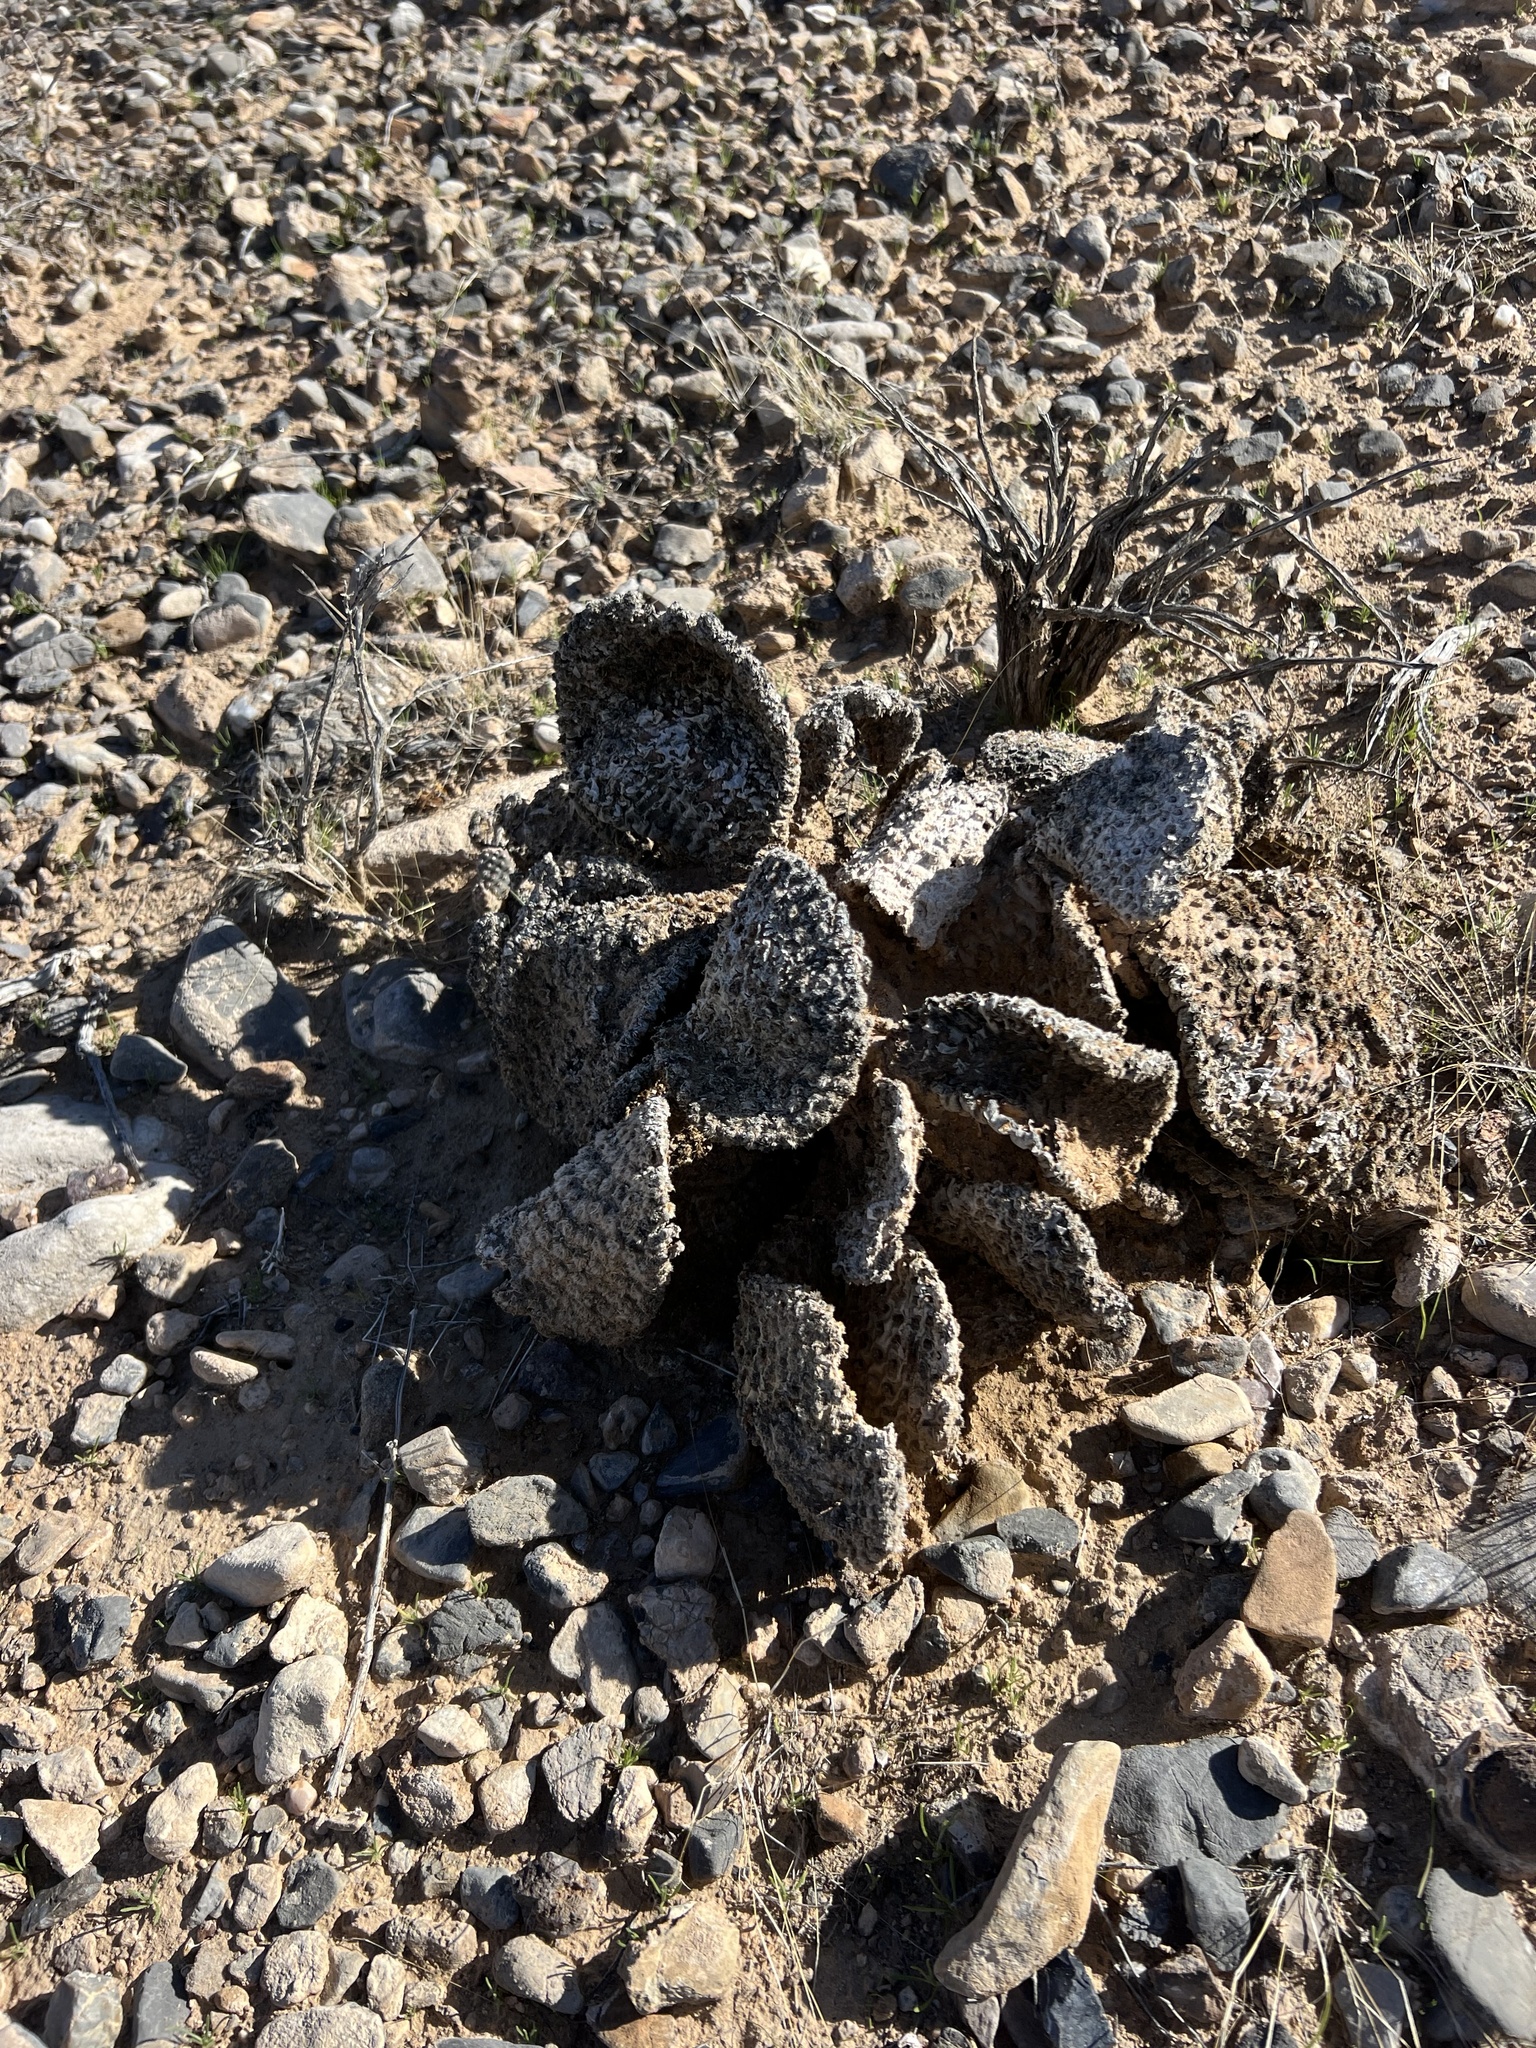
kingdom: Plantae
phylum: Tracheophyta
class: Magnoliopsida
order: Caryophyllales
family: Cactaceae
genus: Opuntia
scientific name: Opuntia basilaris
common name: Beavertail prickly-pear
